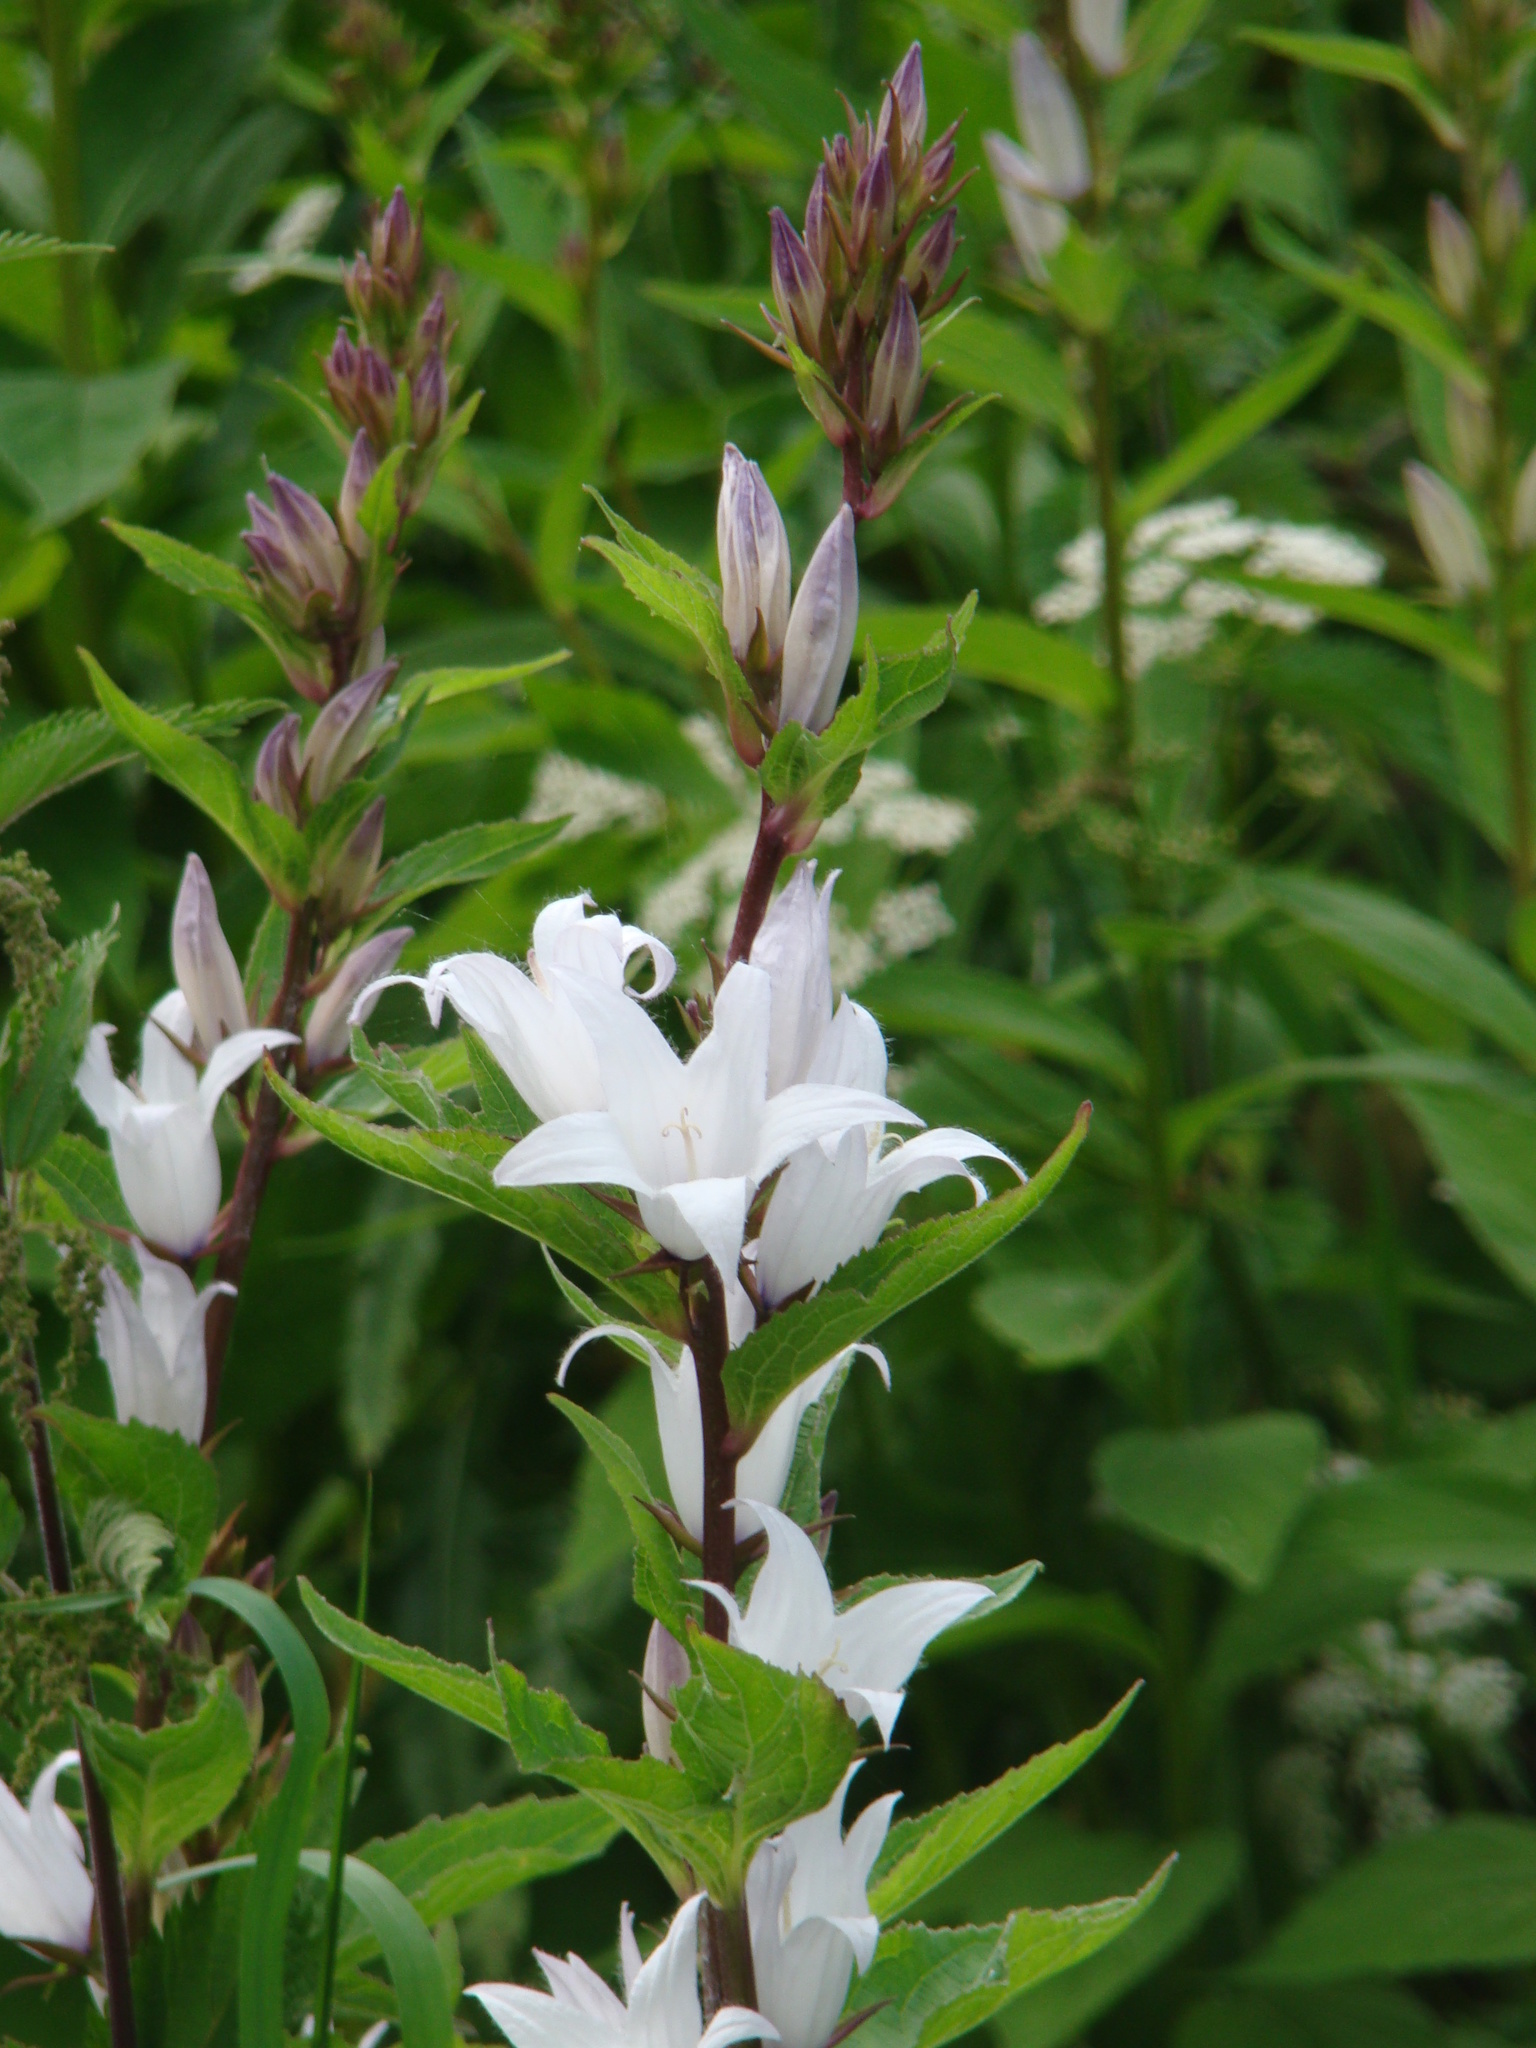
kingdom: Plantae
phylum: Tracheophyta
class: Magnoliopsida
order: Asterales
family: Campanulaceae
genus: Campanula
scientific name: Campanula latifolia
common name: Giant bellflower
